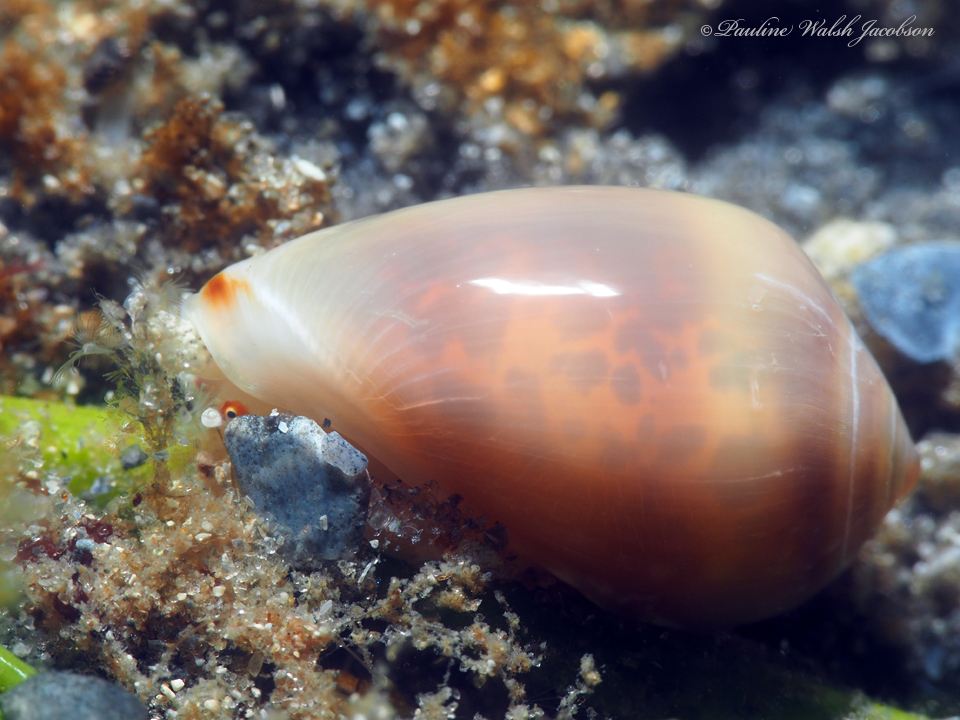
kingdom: Animalia
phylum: Mollusca
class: Gastropoda
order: Neogastropoda
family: Marginellidae
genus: Prunum
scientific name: Prunum apicinum
